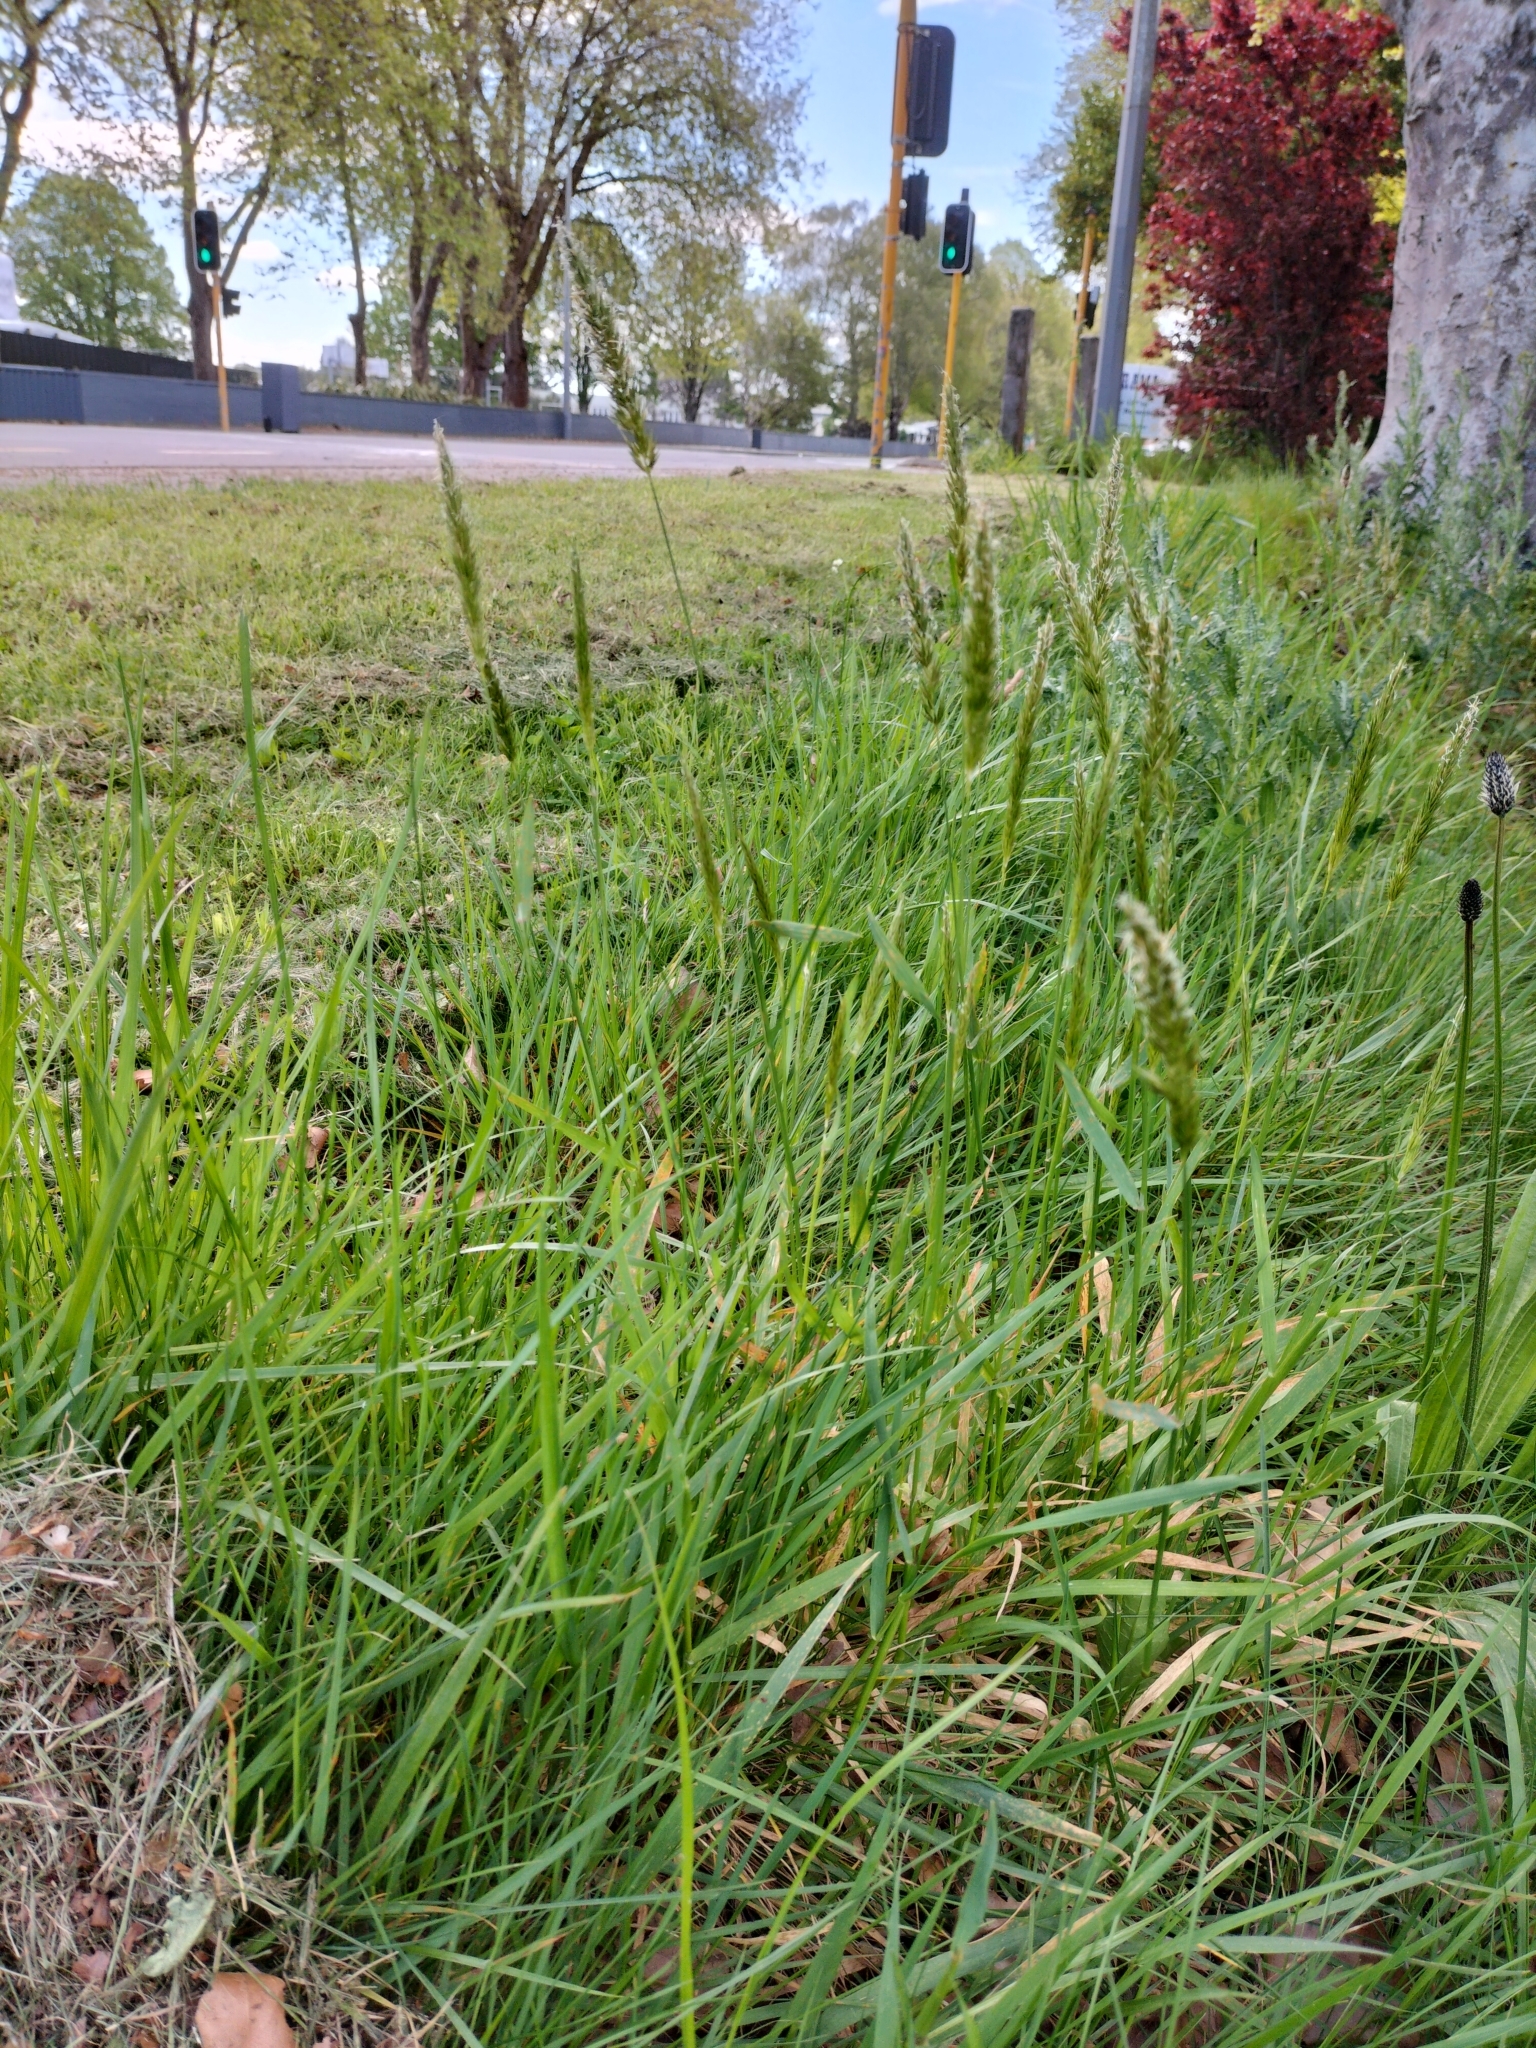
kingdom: Plantae
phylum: Tracheophyta
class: Liliopsida
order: Poales
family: Poaceae
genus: Anthoxanthum
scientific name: Anthoxanthum odoratum
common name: Sweet vernalgrass
